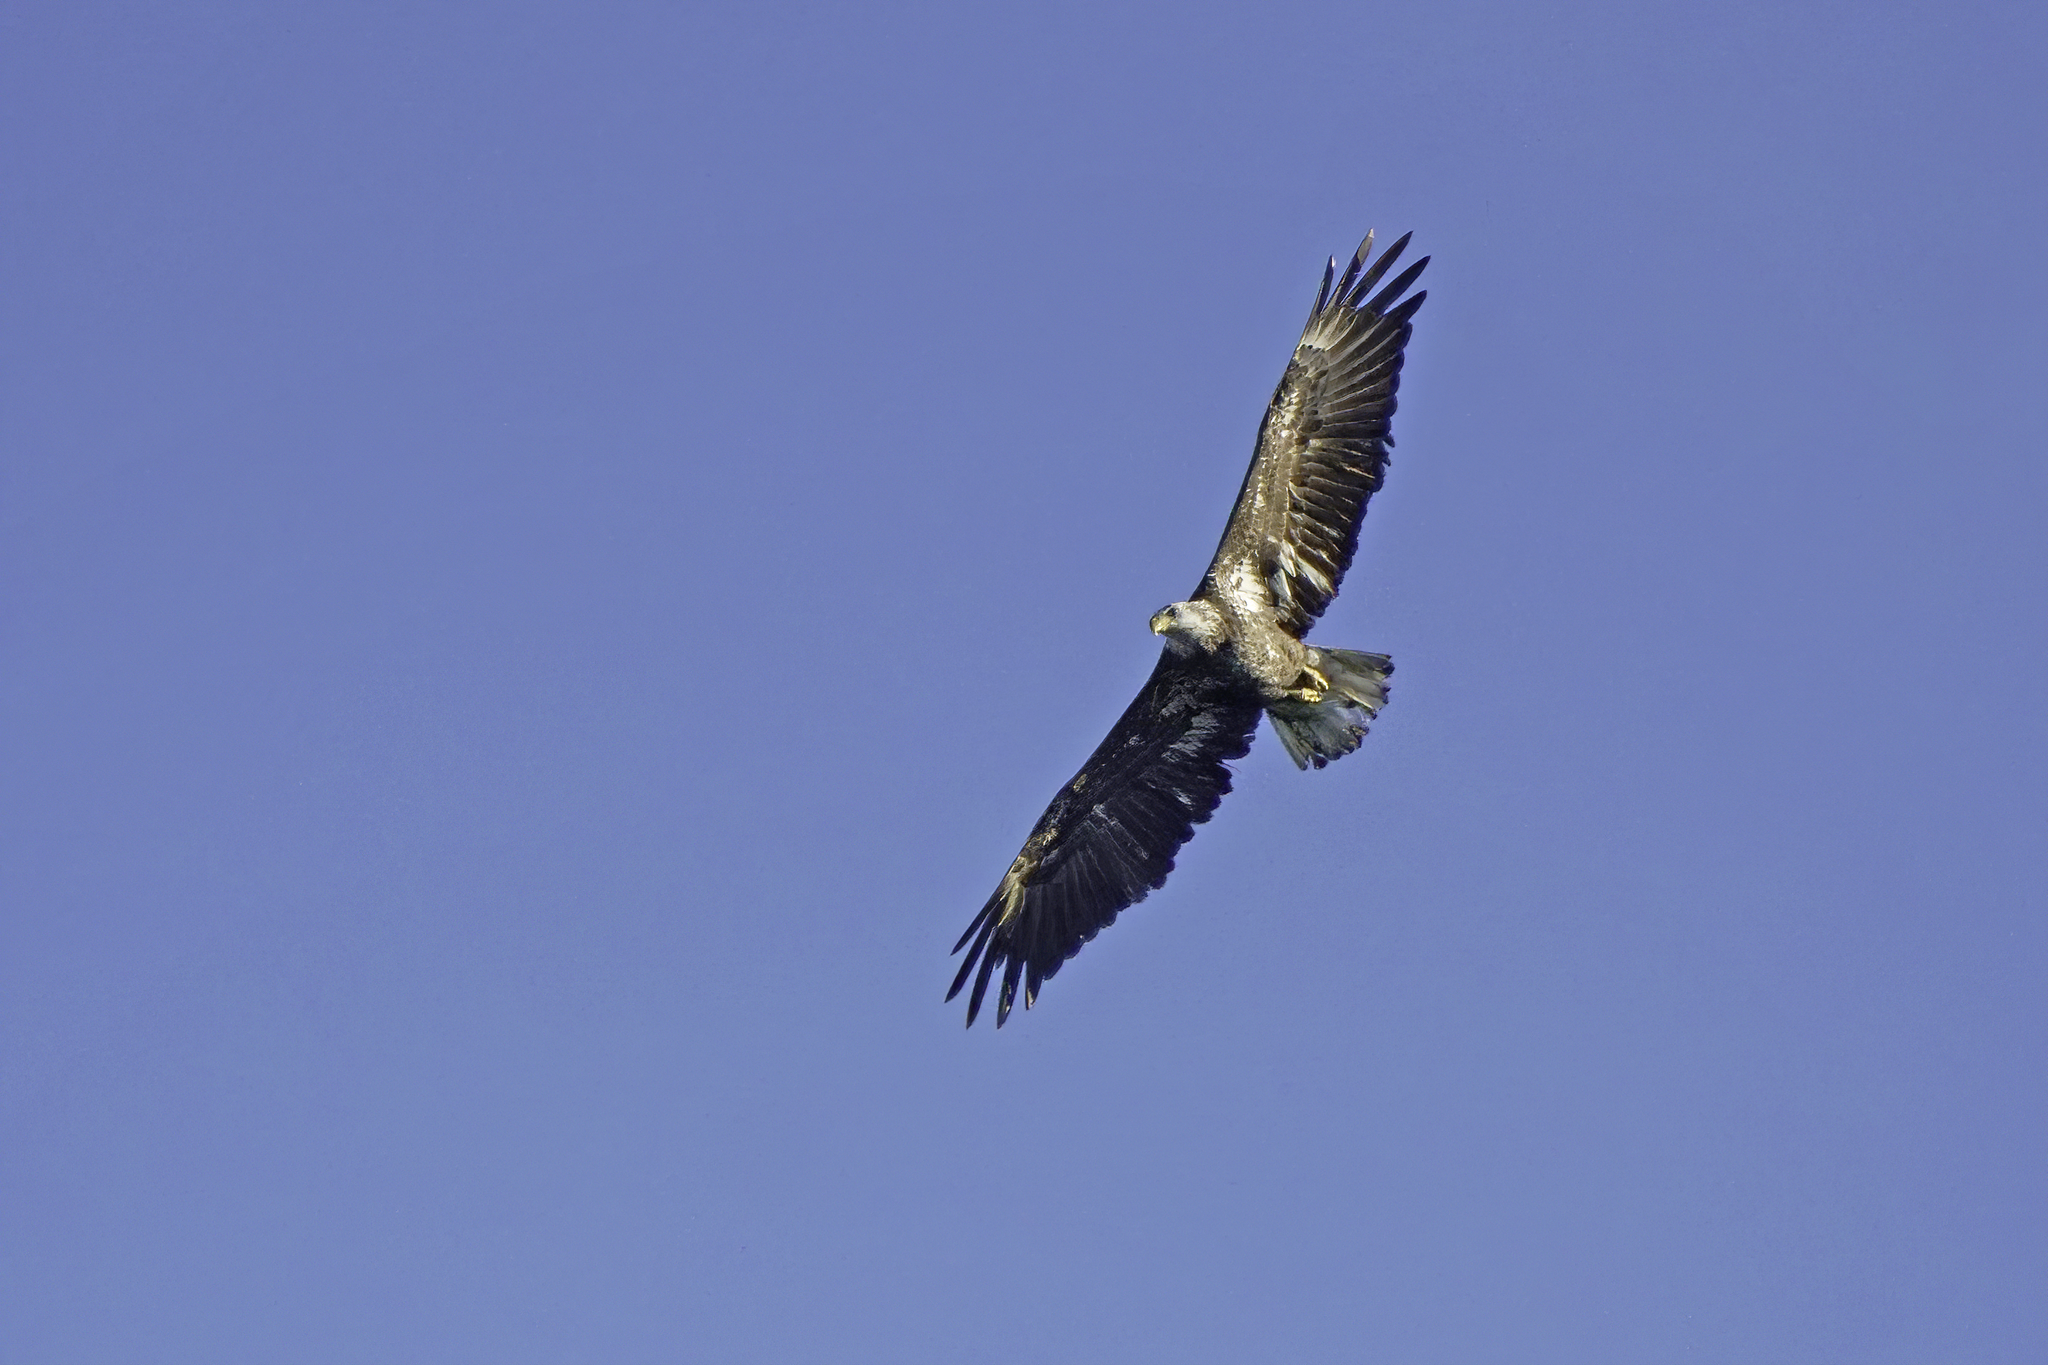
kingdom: Animalia
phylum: Chordata
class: Aves
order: Accipitriformes
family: Accipitridae
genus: Haliaeetus
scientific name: Haliaeetus leucocephalus
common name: Bald eagle
